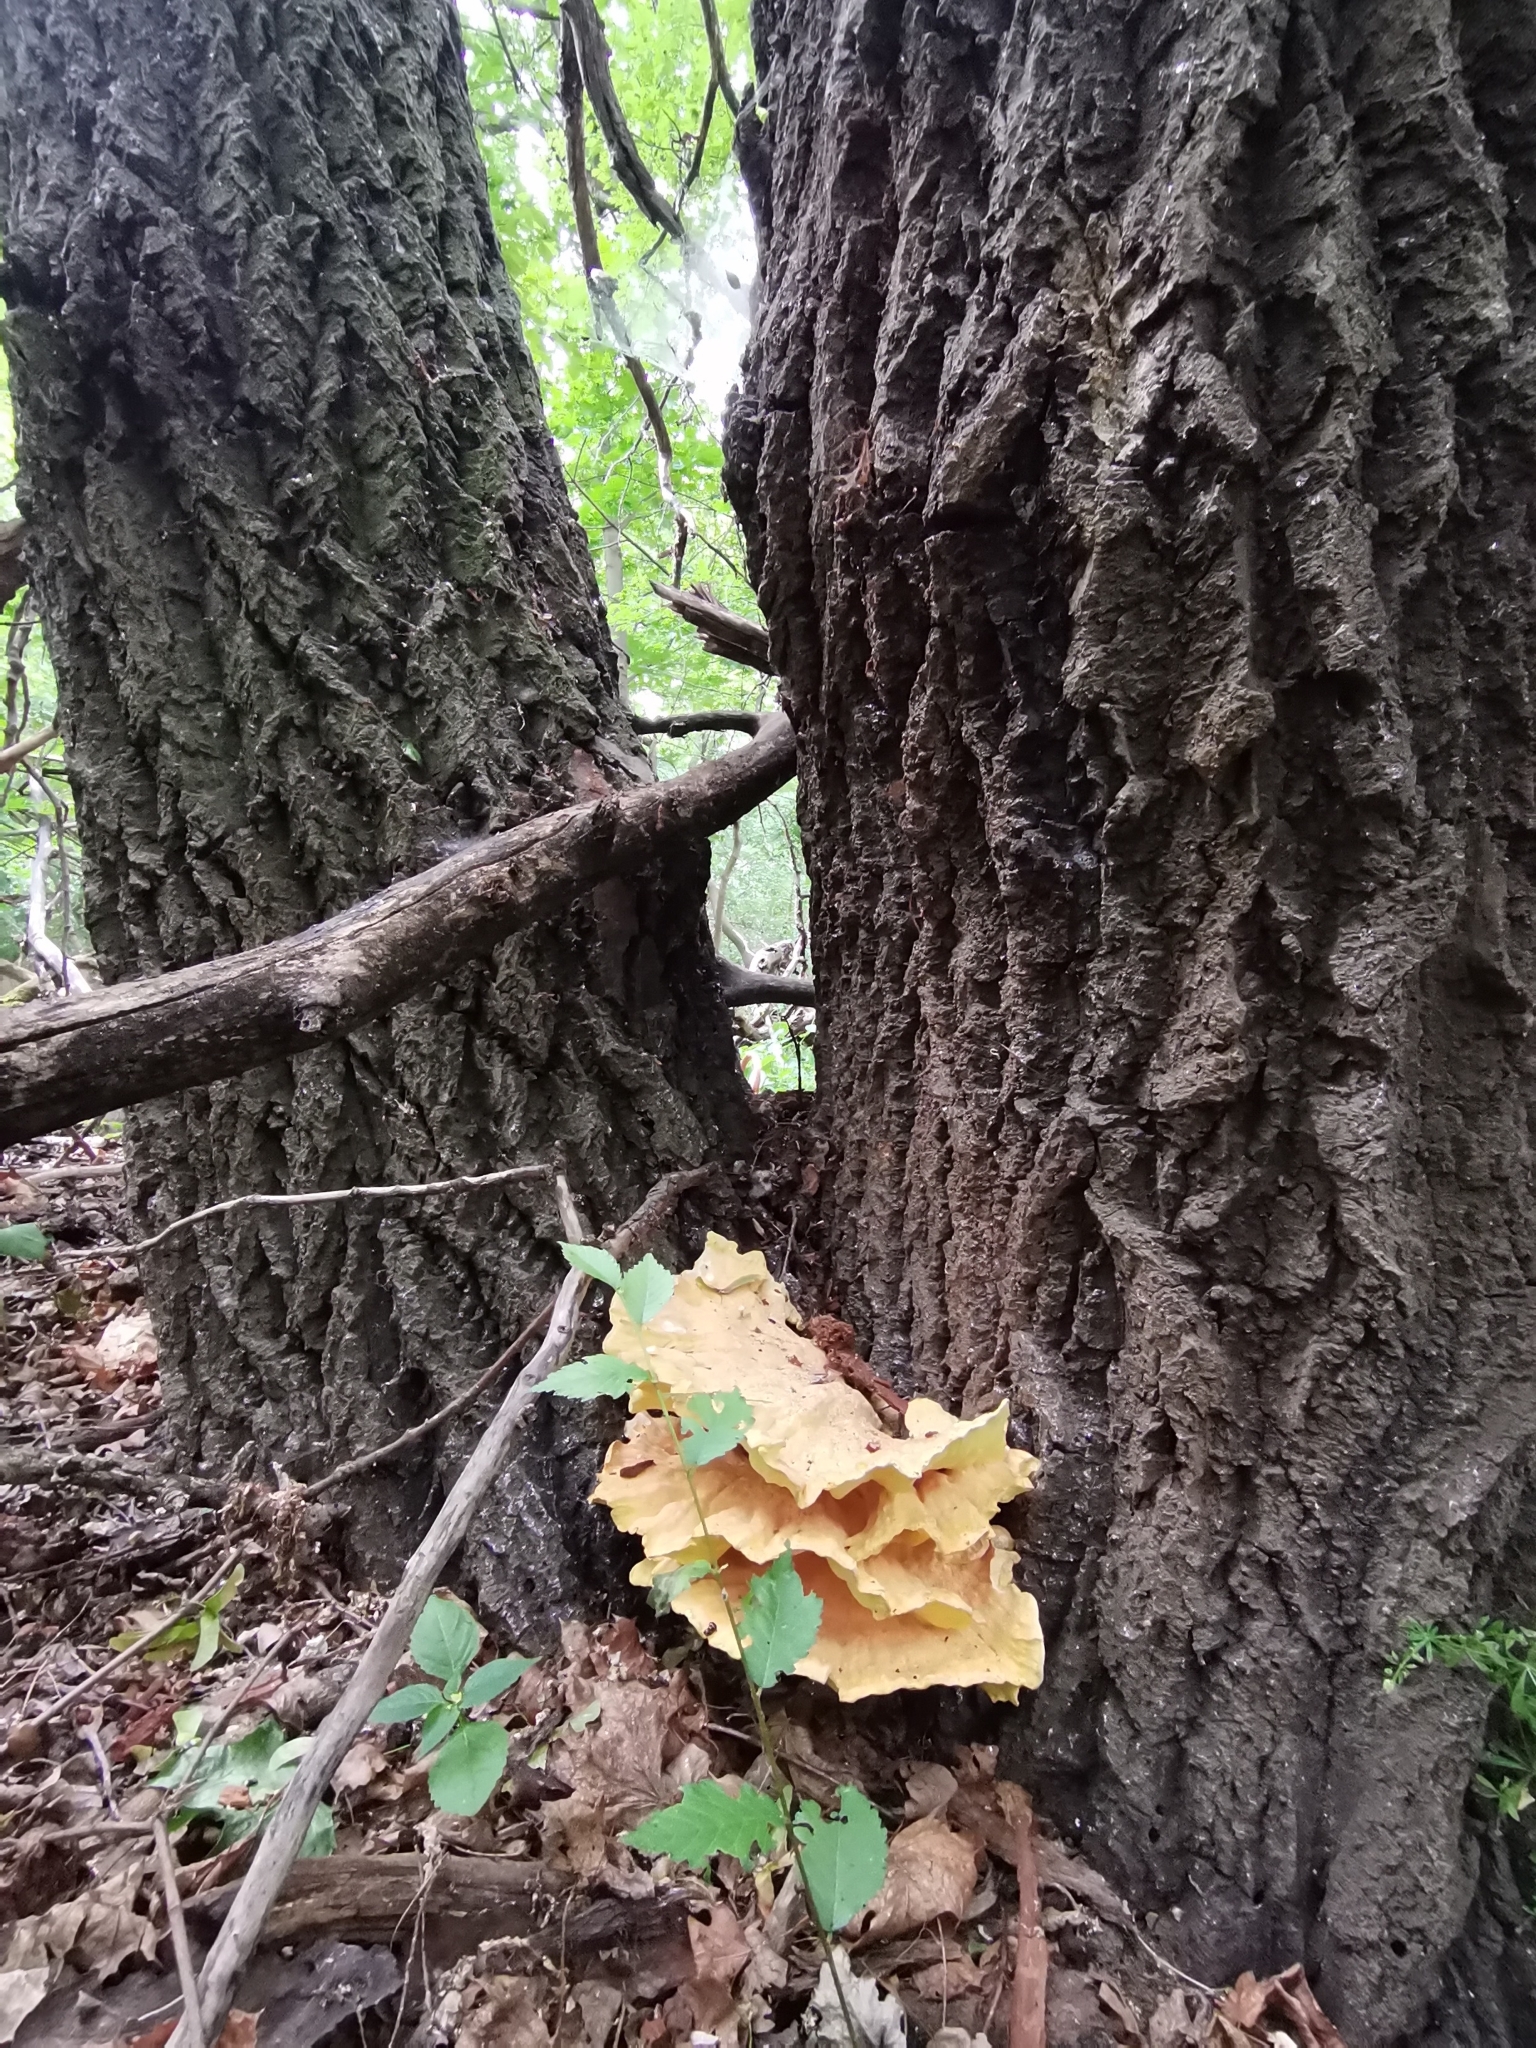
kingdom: Fungi
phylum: Basidiomycota
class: Agaricomycetes
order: Polyporales
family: Laetiporaceae
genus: Laetiporus
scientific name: Laetiporus sulphureus
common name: Chicken of the woods
